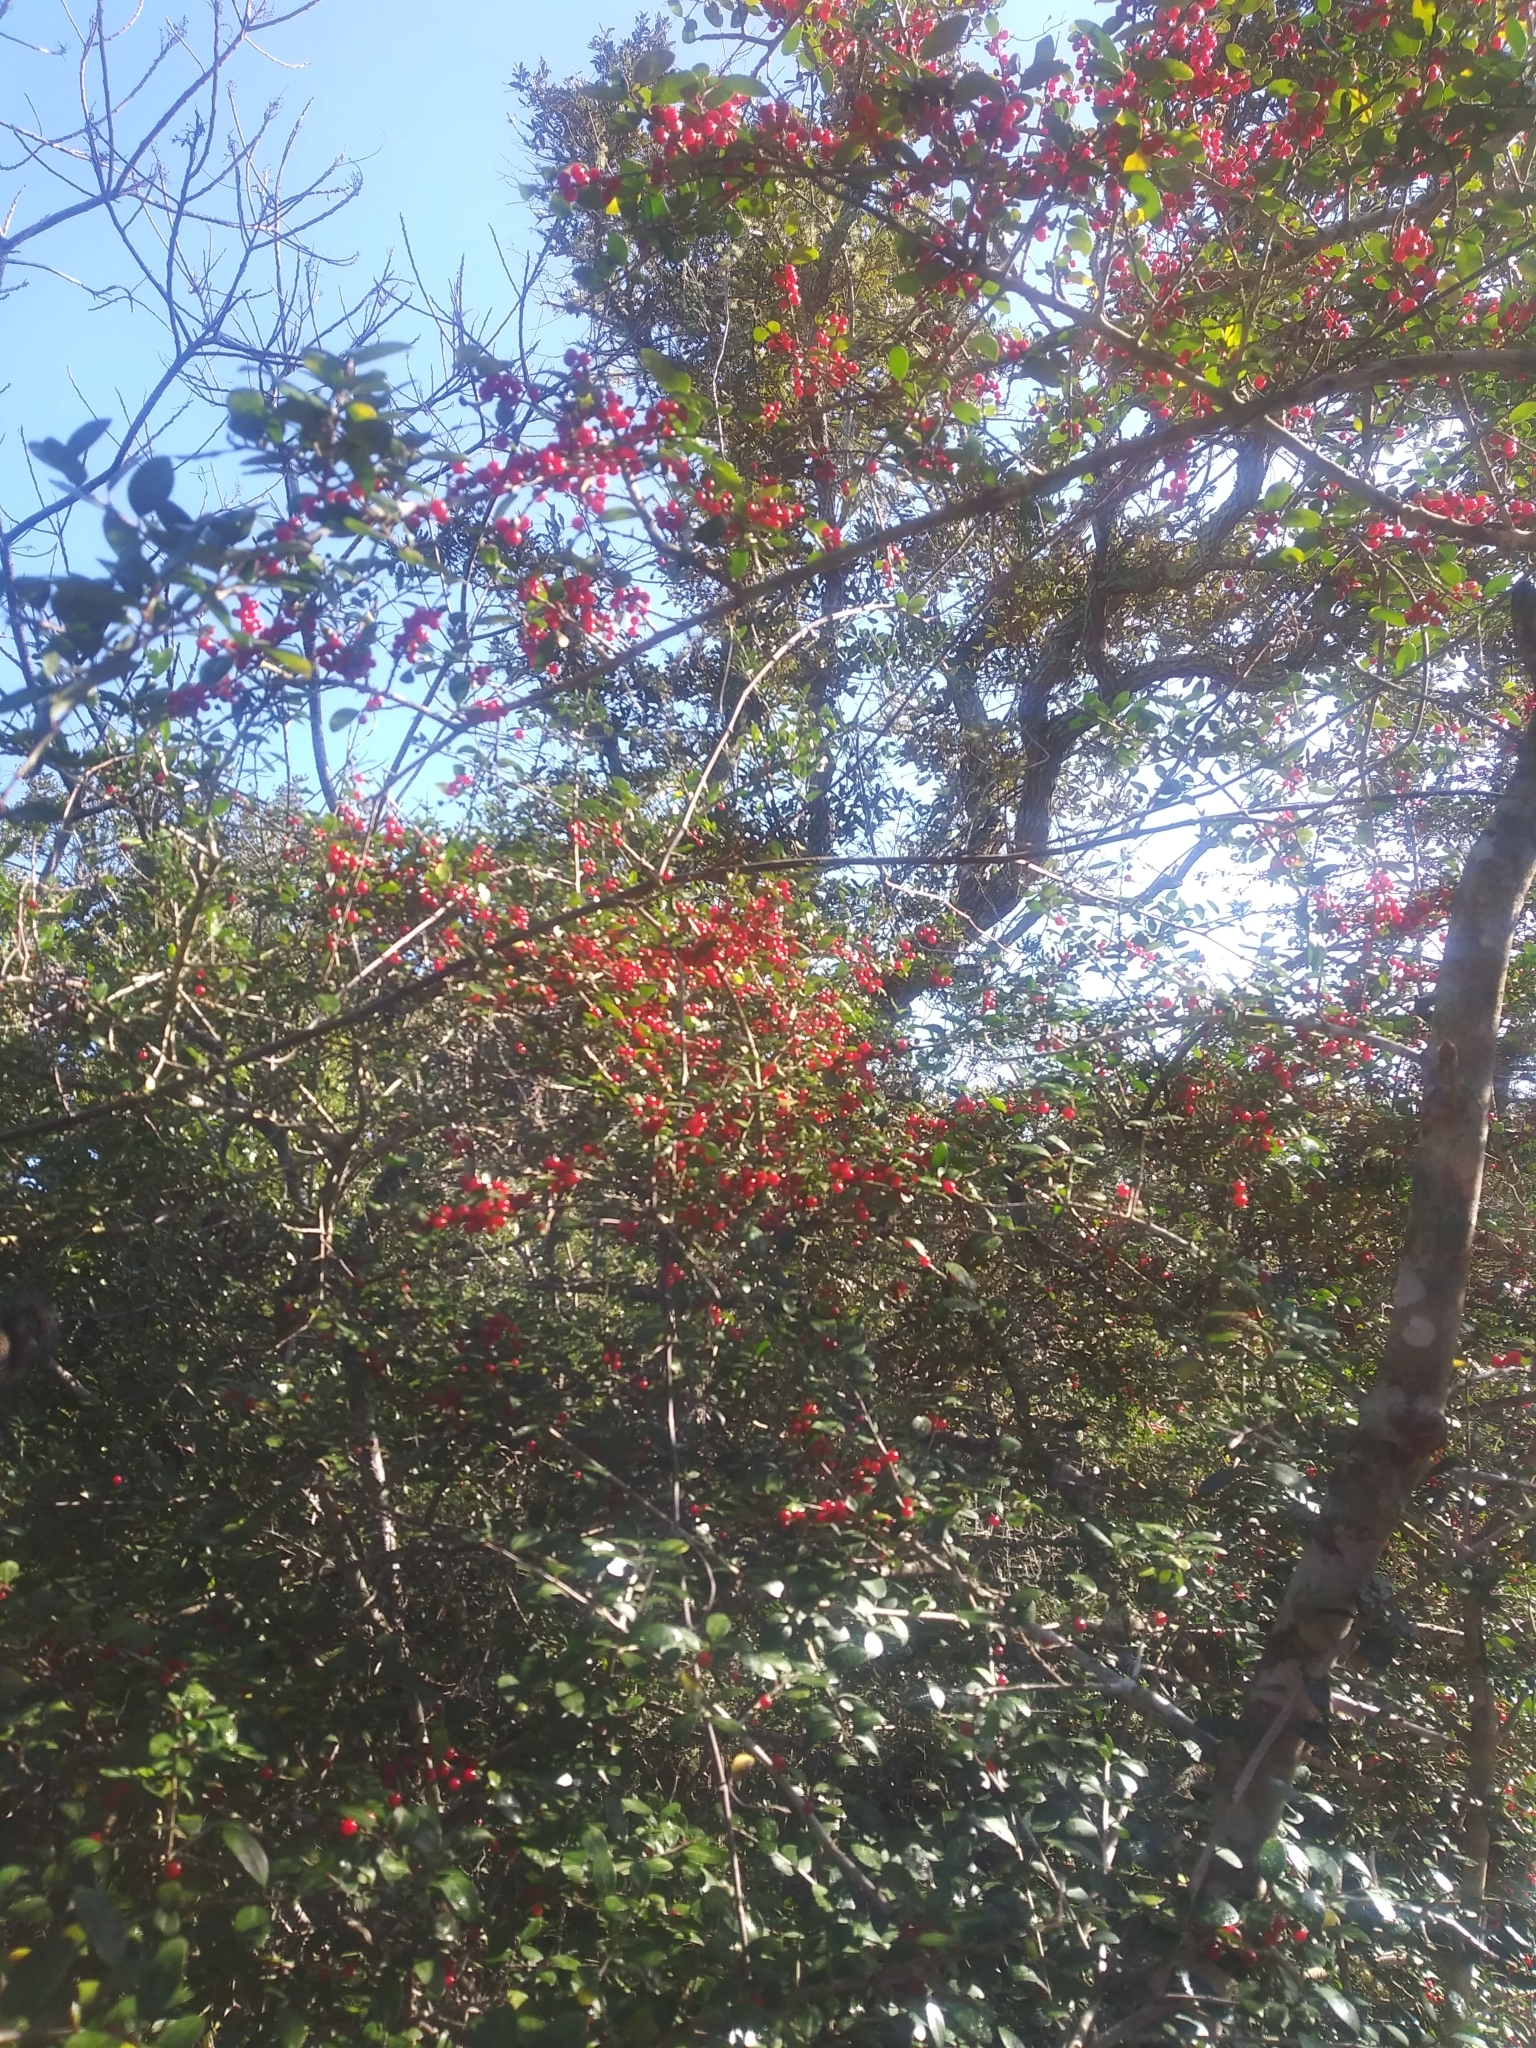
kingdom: Plantae
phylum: Tracheophyta
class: Magnoliopsida
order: Aquifoliales
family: Aquifoliaceae
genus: Ilex
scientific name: Ilex vomitoria
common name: Yaupon holly
